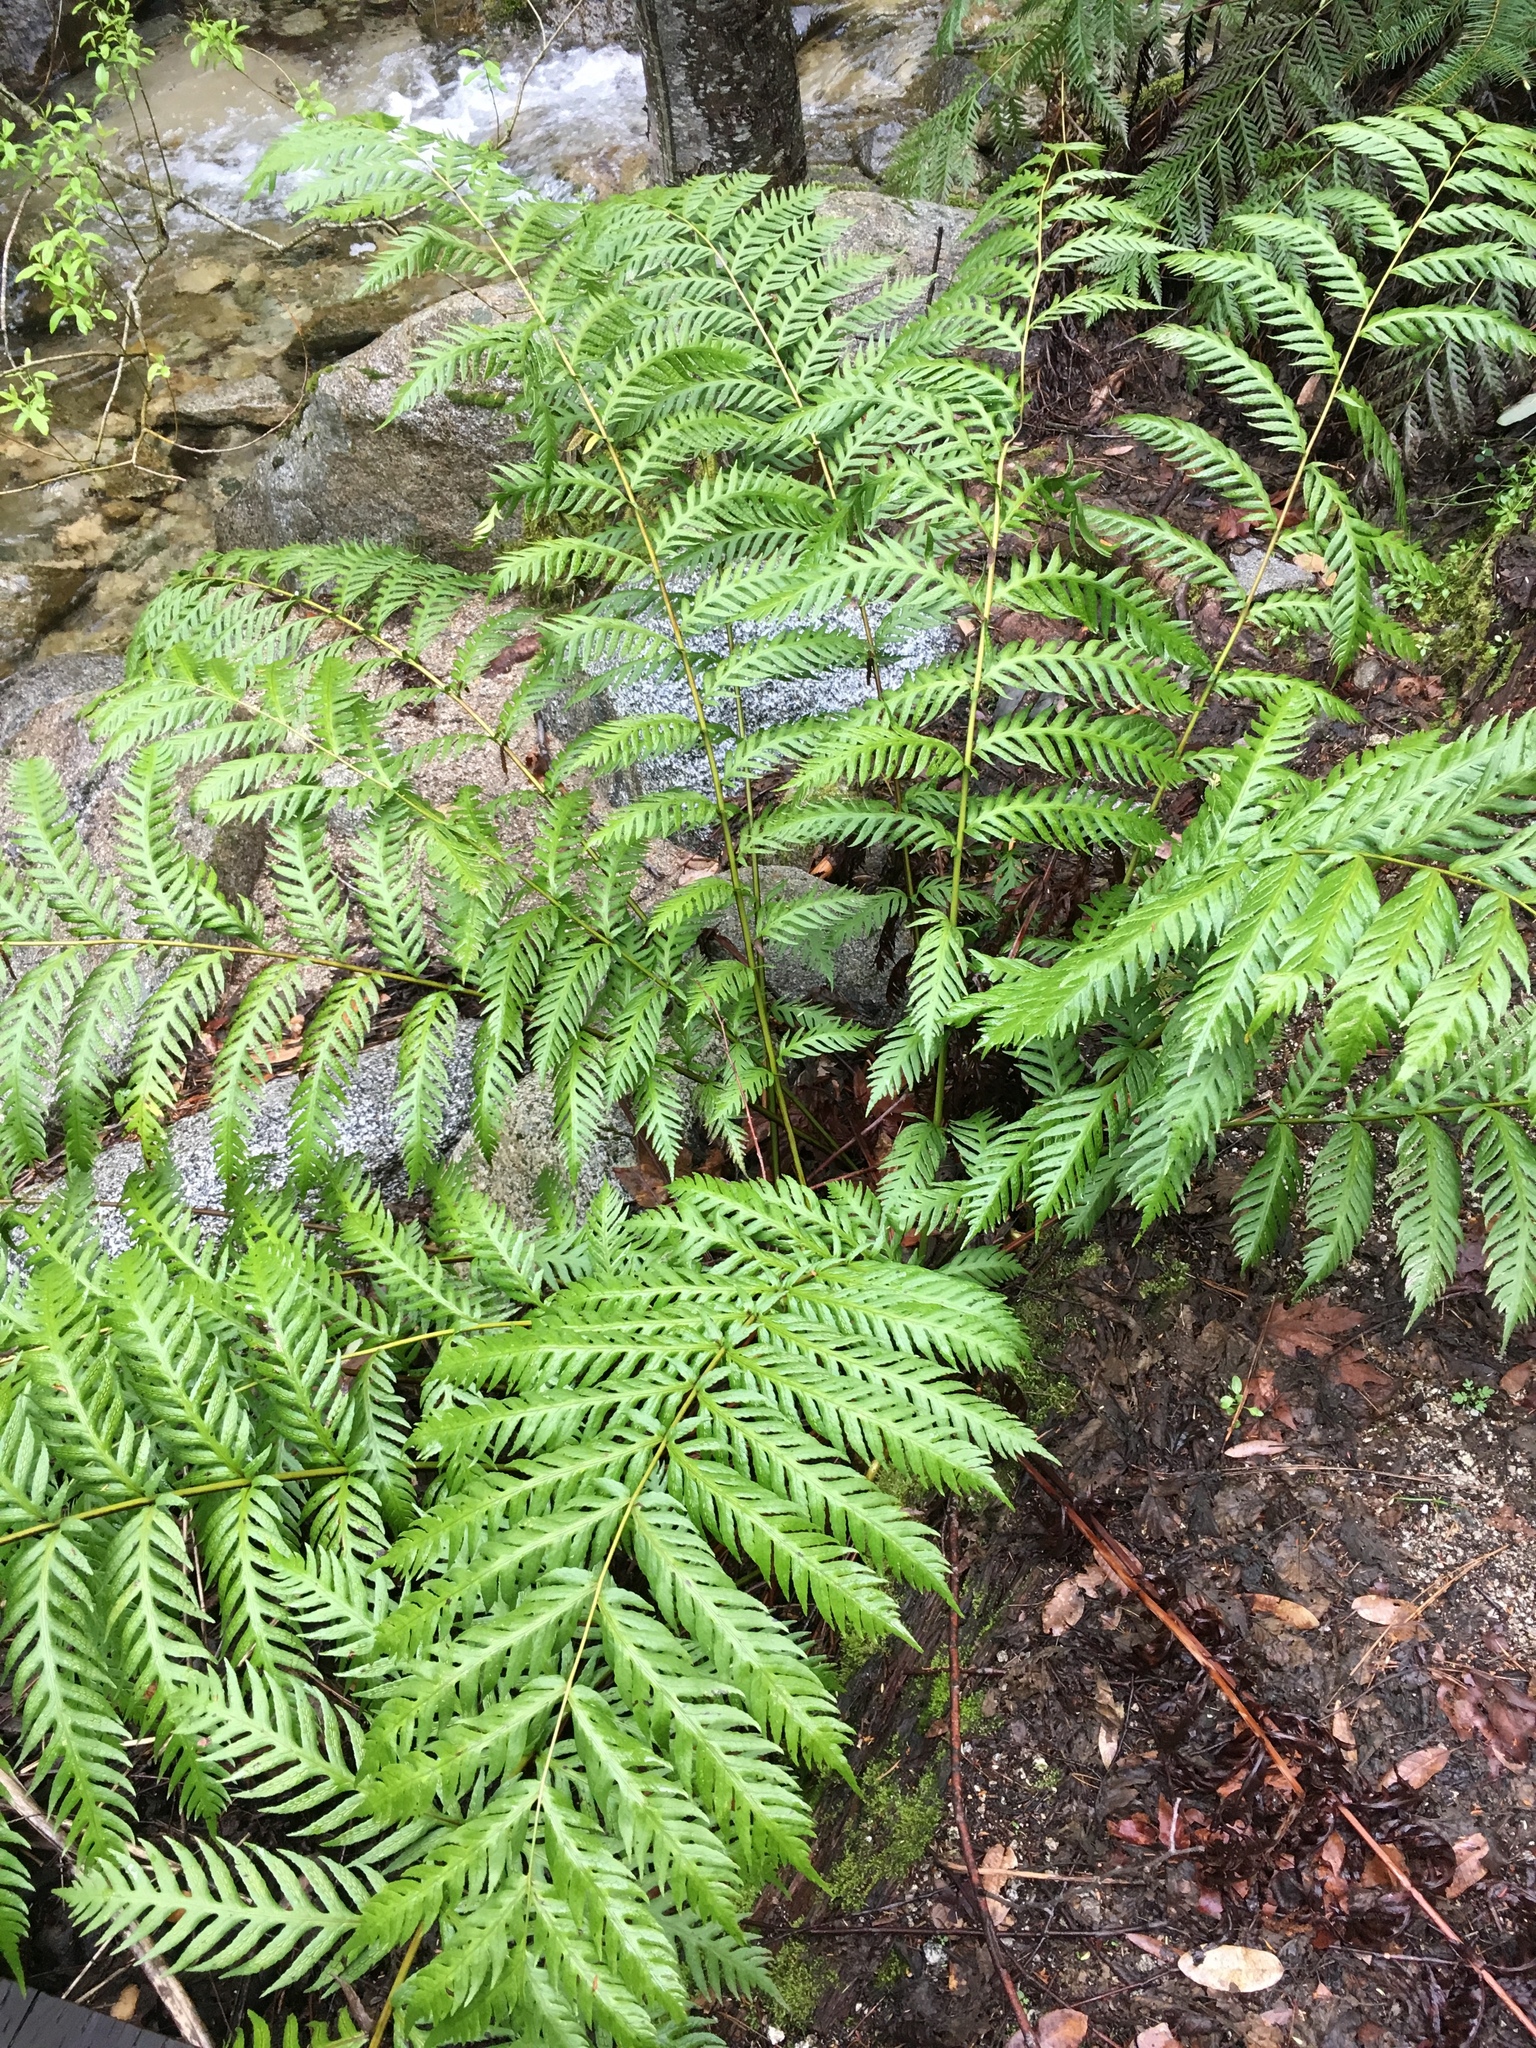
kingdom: Plantae
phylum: Tracheophyta
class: Polypodiopsida
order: Polypodiales
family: Blechnaceae
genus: Woodwardia
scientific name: Woodwardia fimbriata
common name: Giant chain fern
